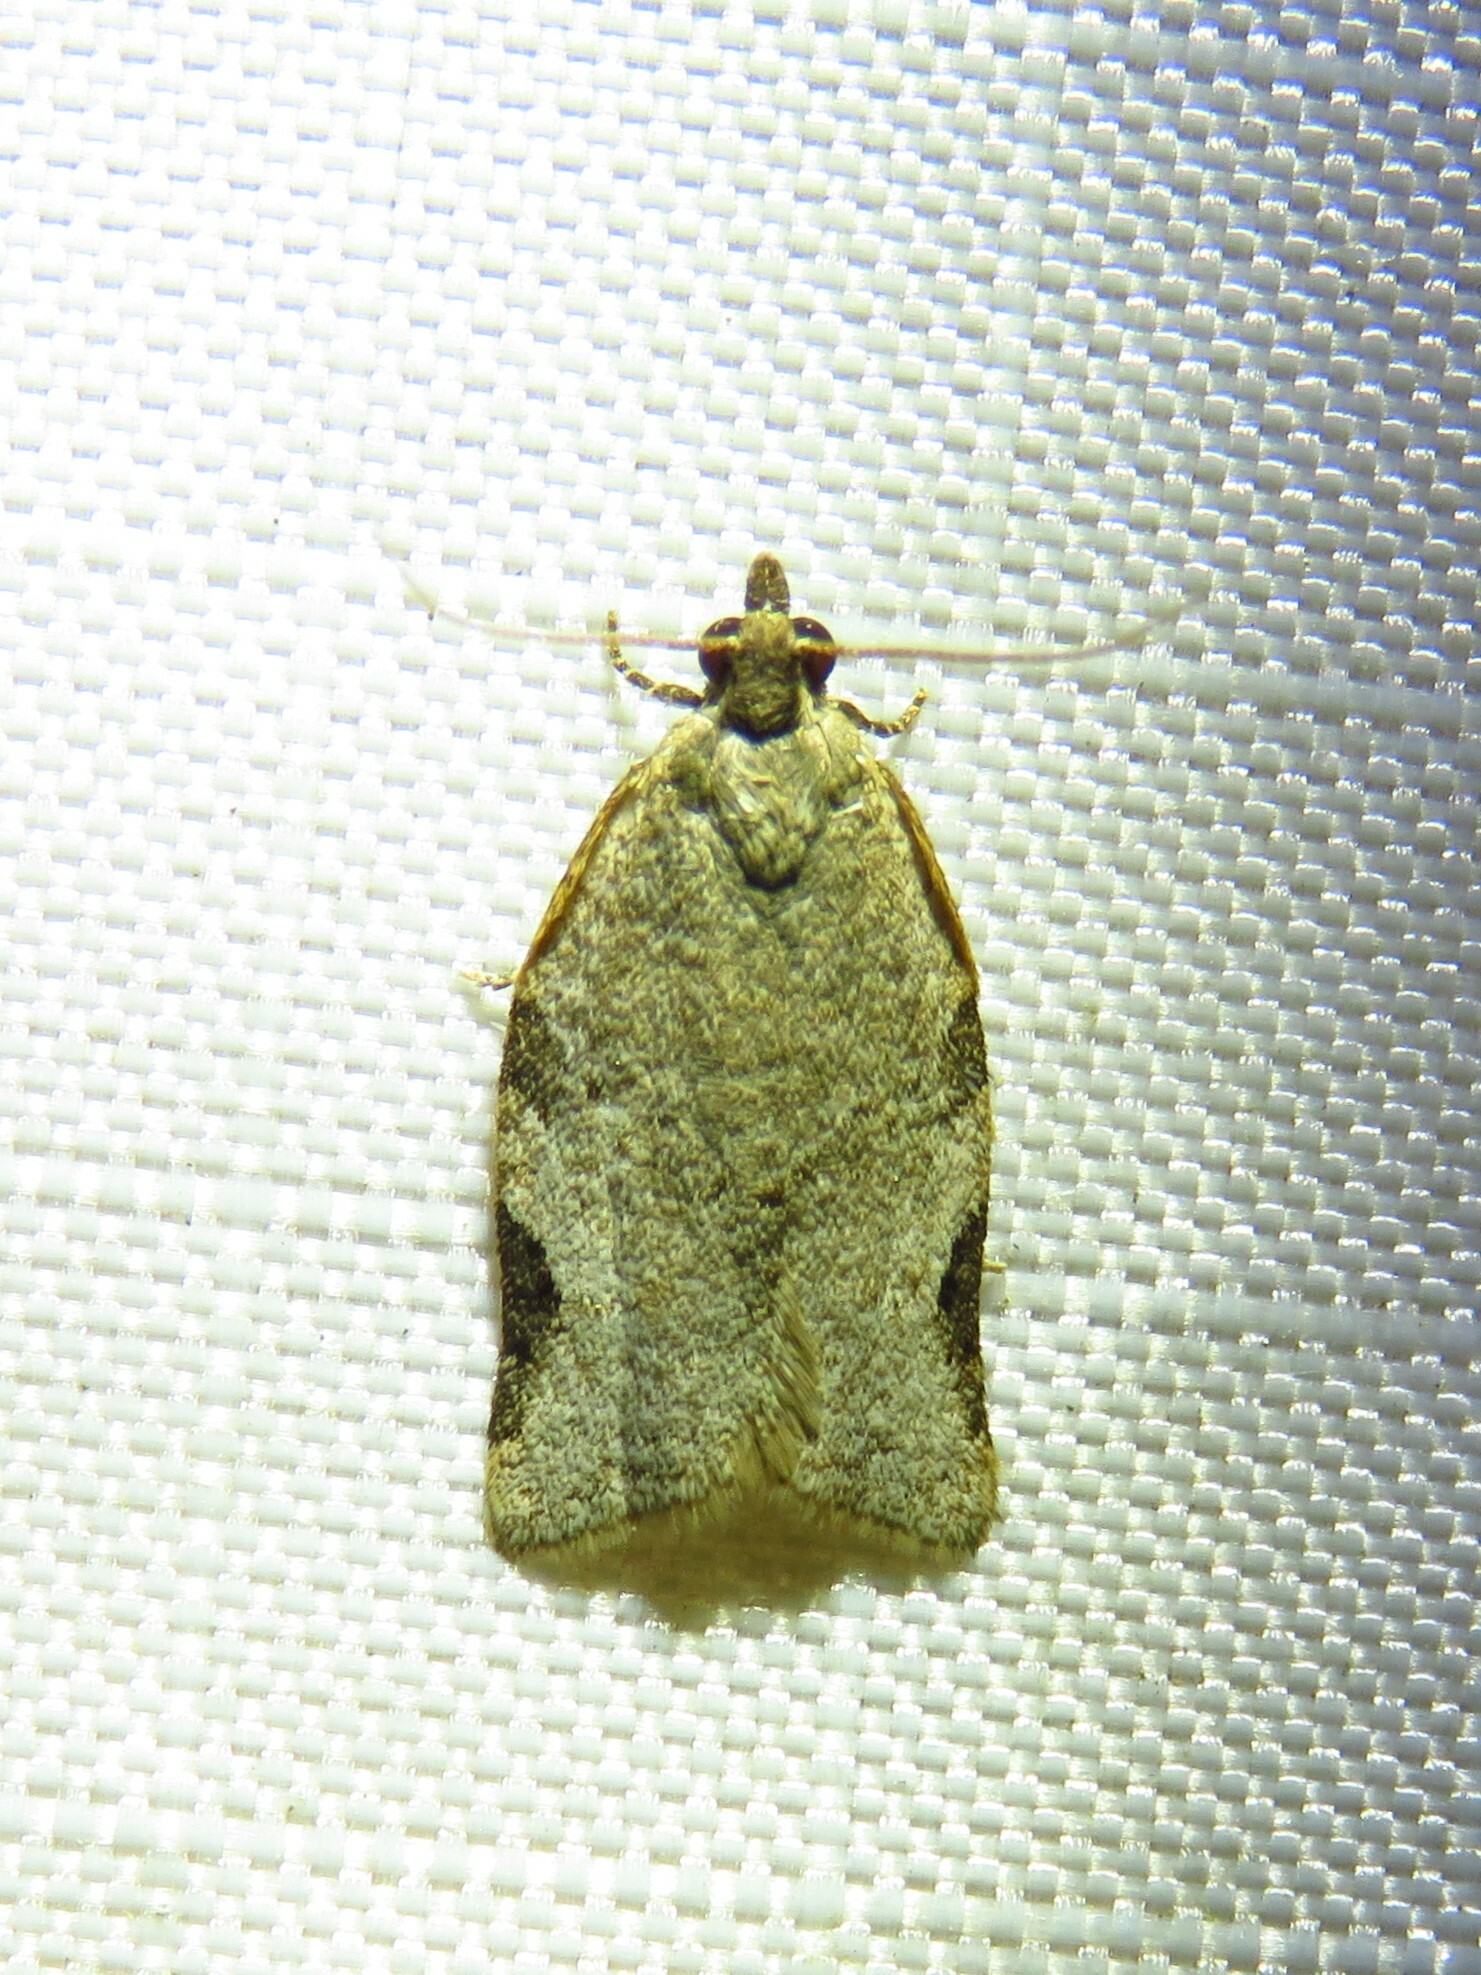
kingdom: Animalia
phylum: Arthropoda
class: Insecta
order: Lepidoptera
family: Tortricidae
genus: Clepsis
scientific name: Clepsis virescana
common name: Greenish apple moth
